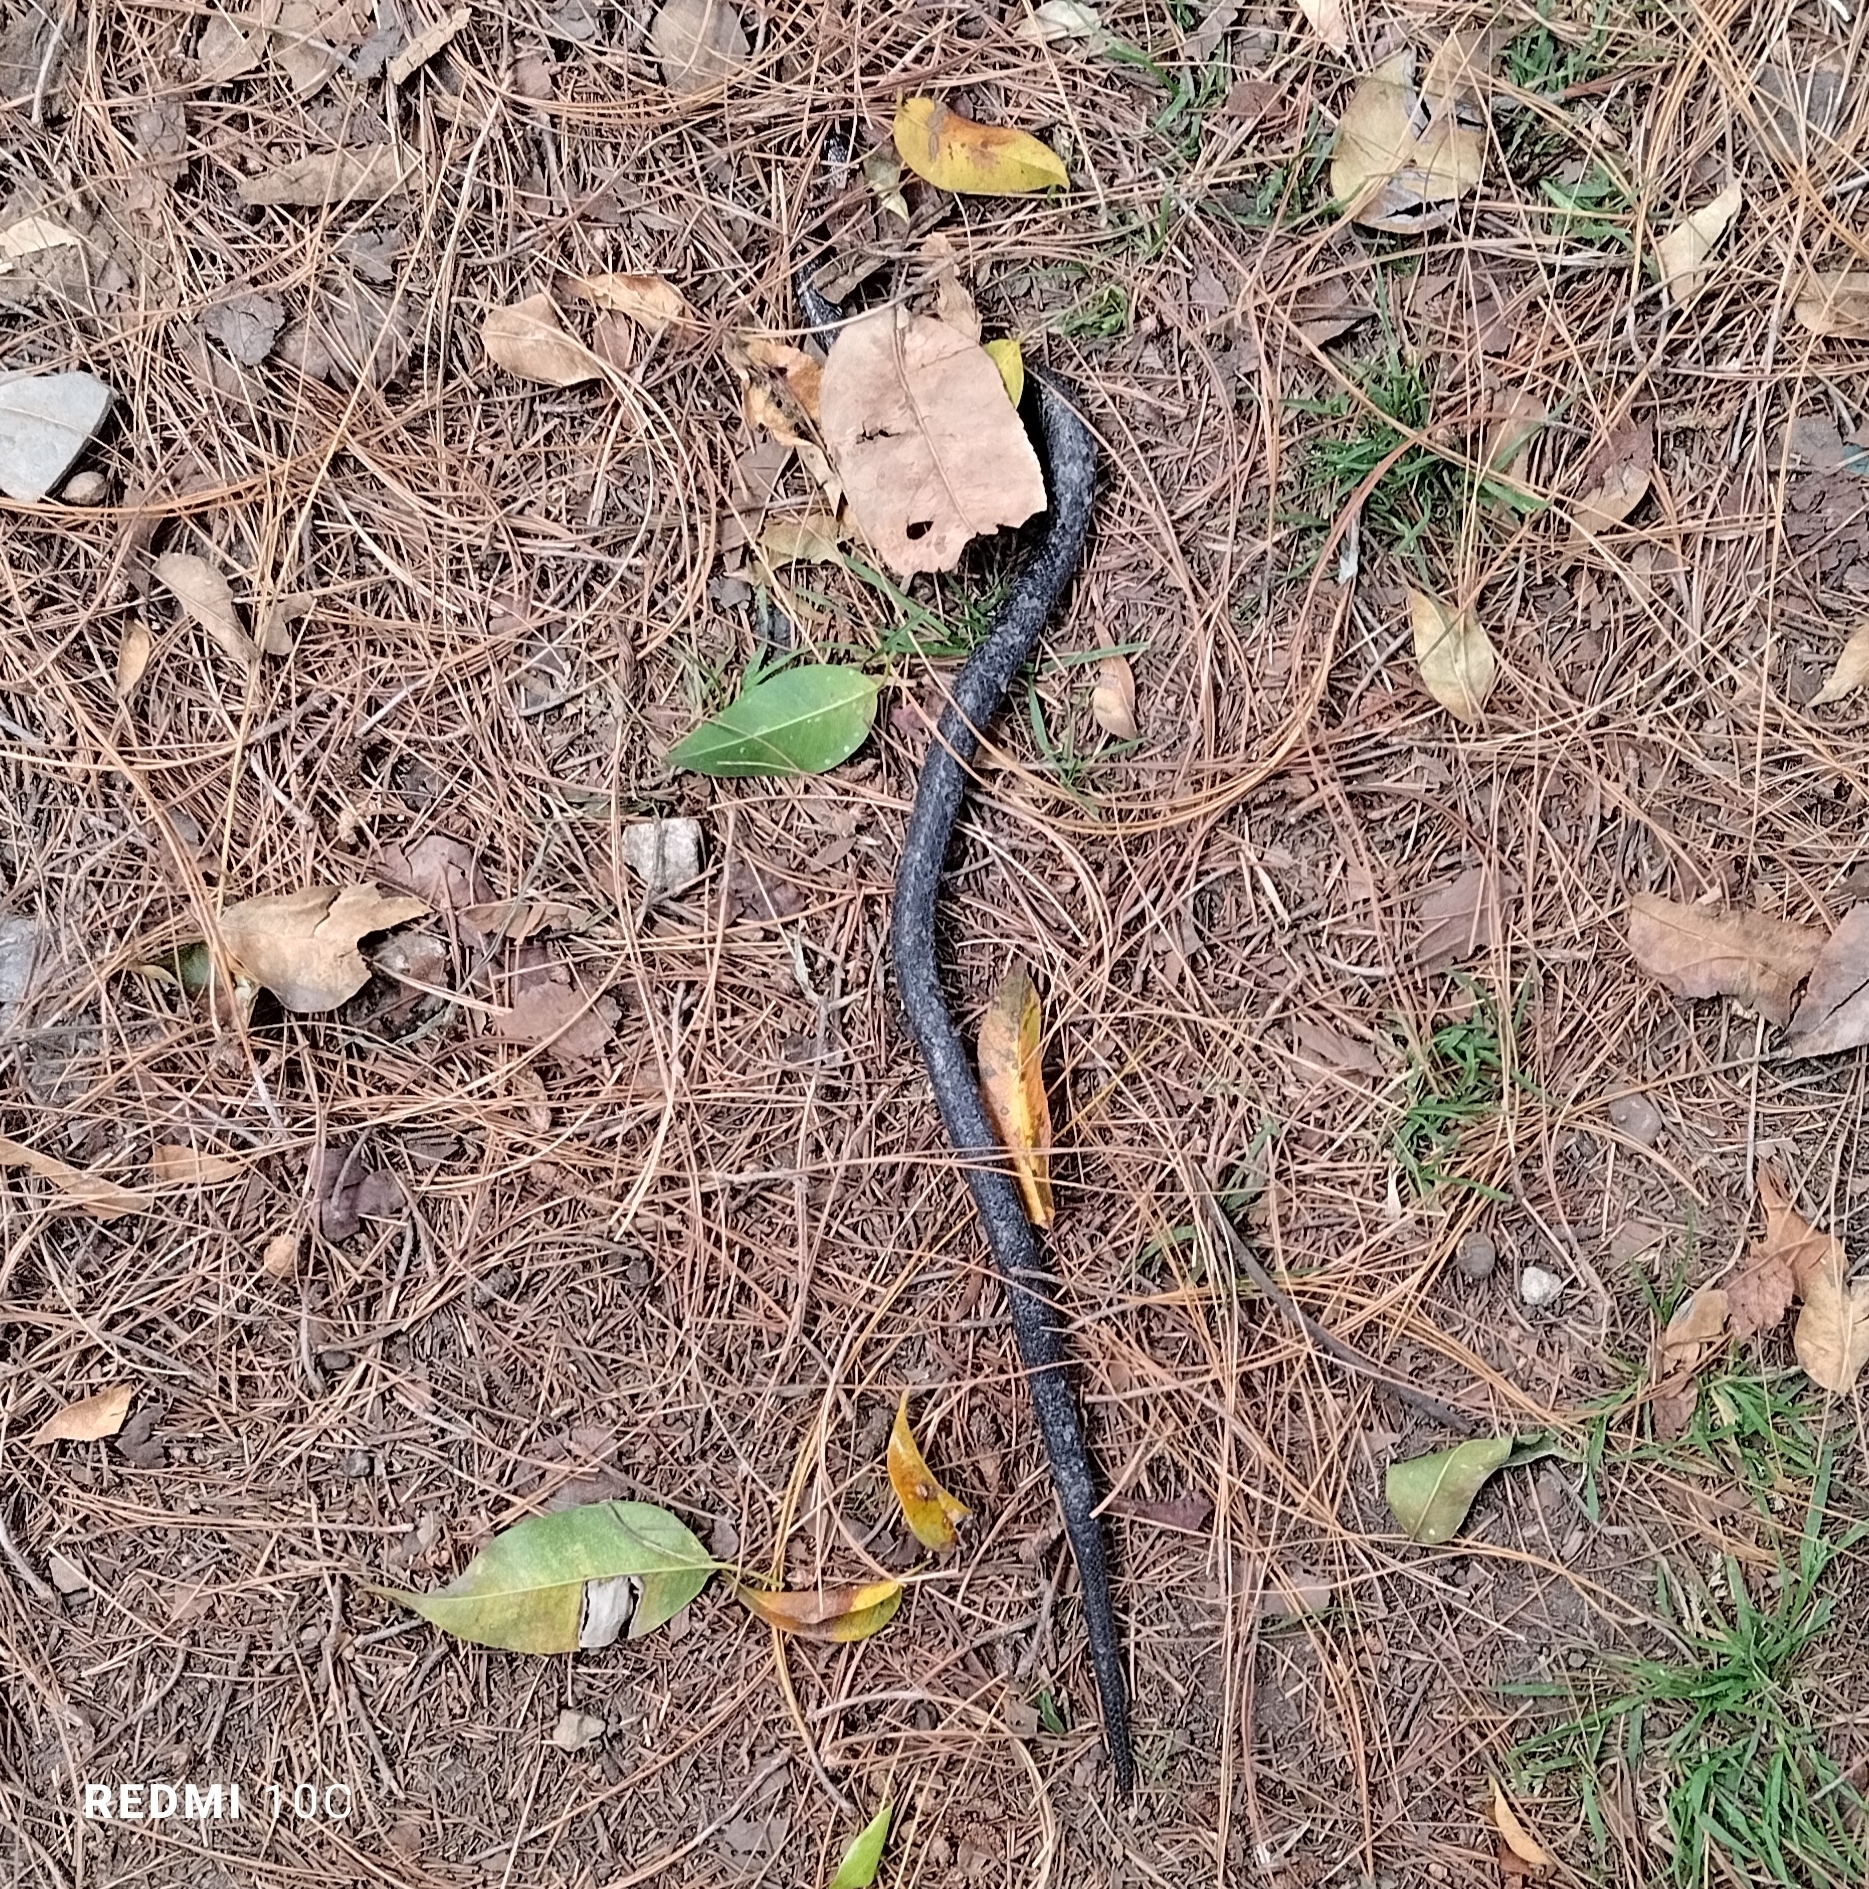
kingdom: Animalia
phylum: Chordata
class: Squamata
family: Colubridae
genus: Atractus
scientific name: Atractus crassicaudatus
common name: Thickhead ground snake
